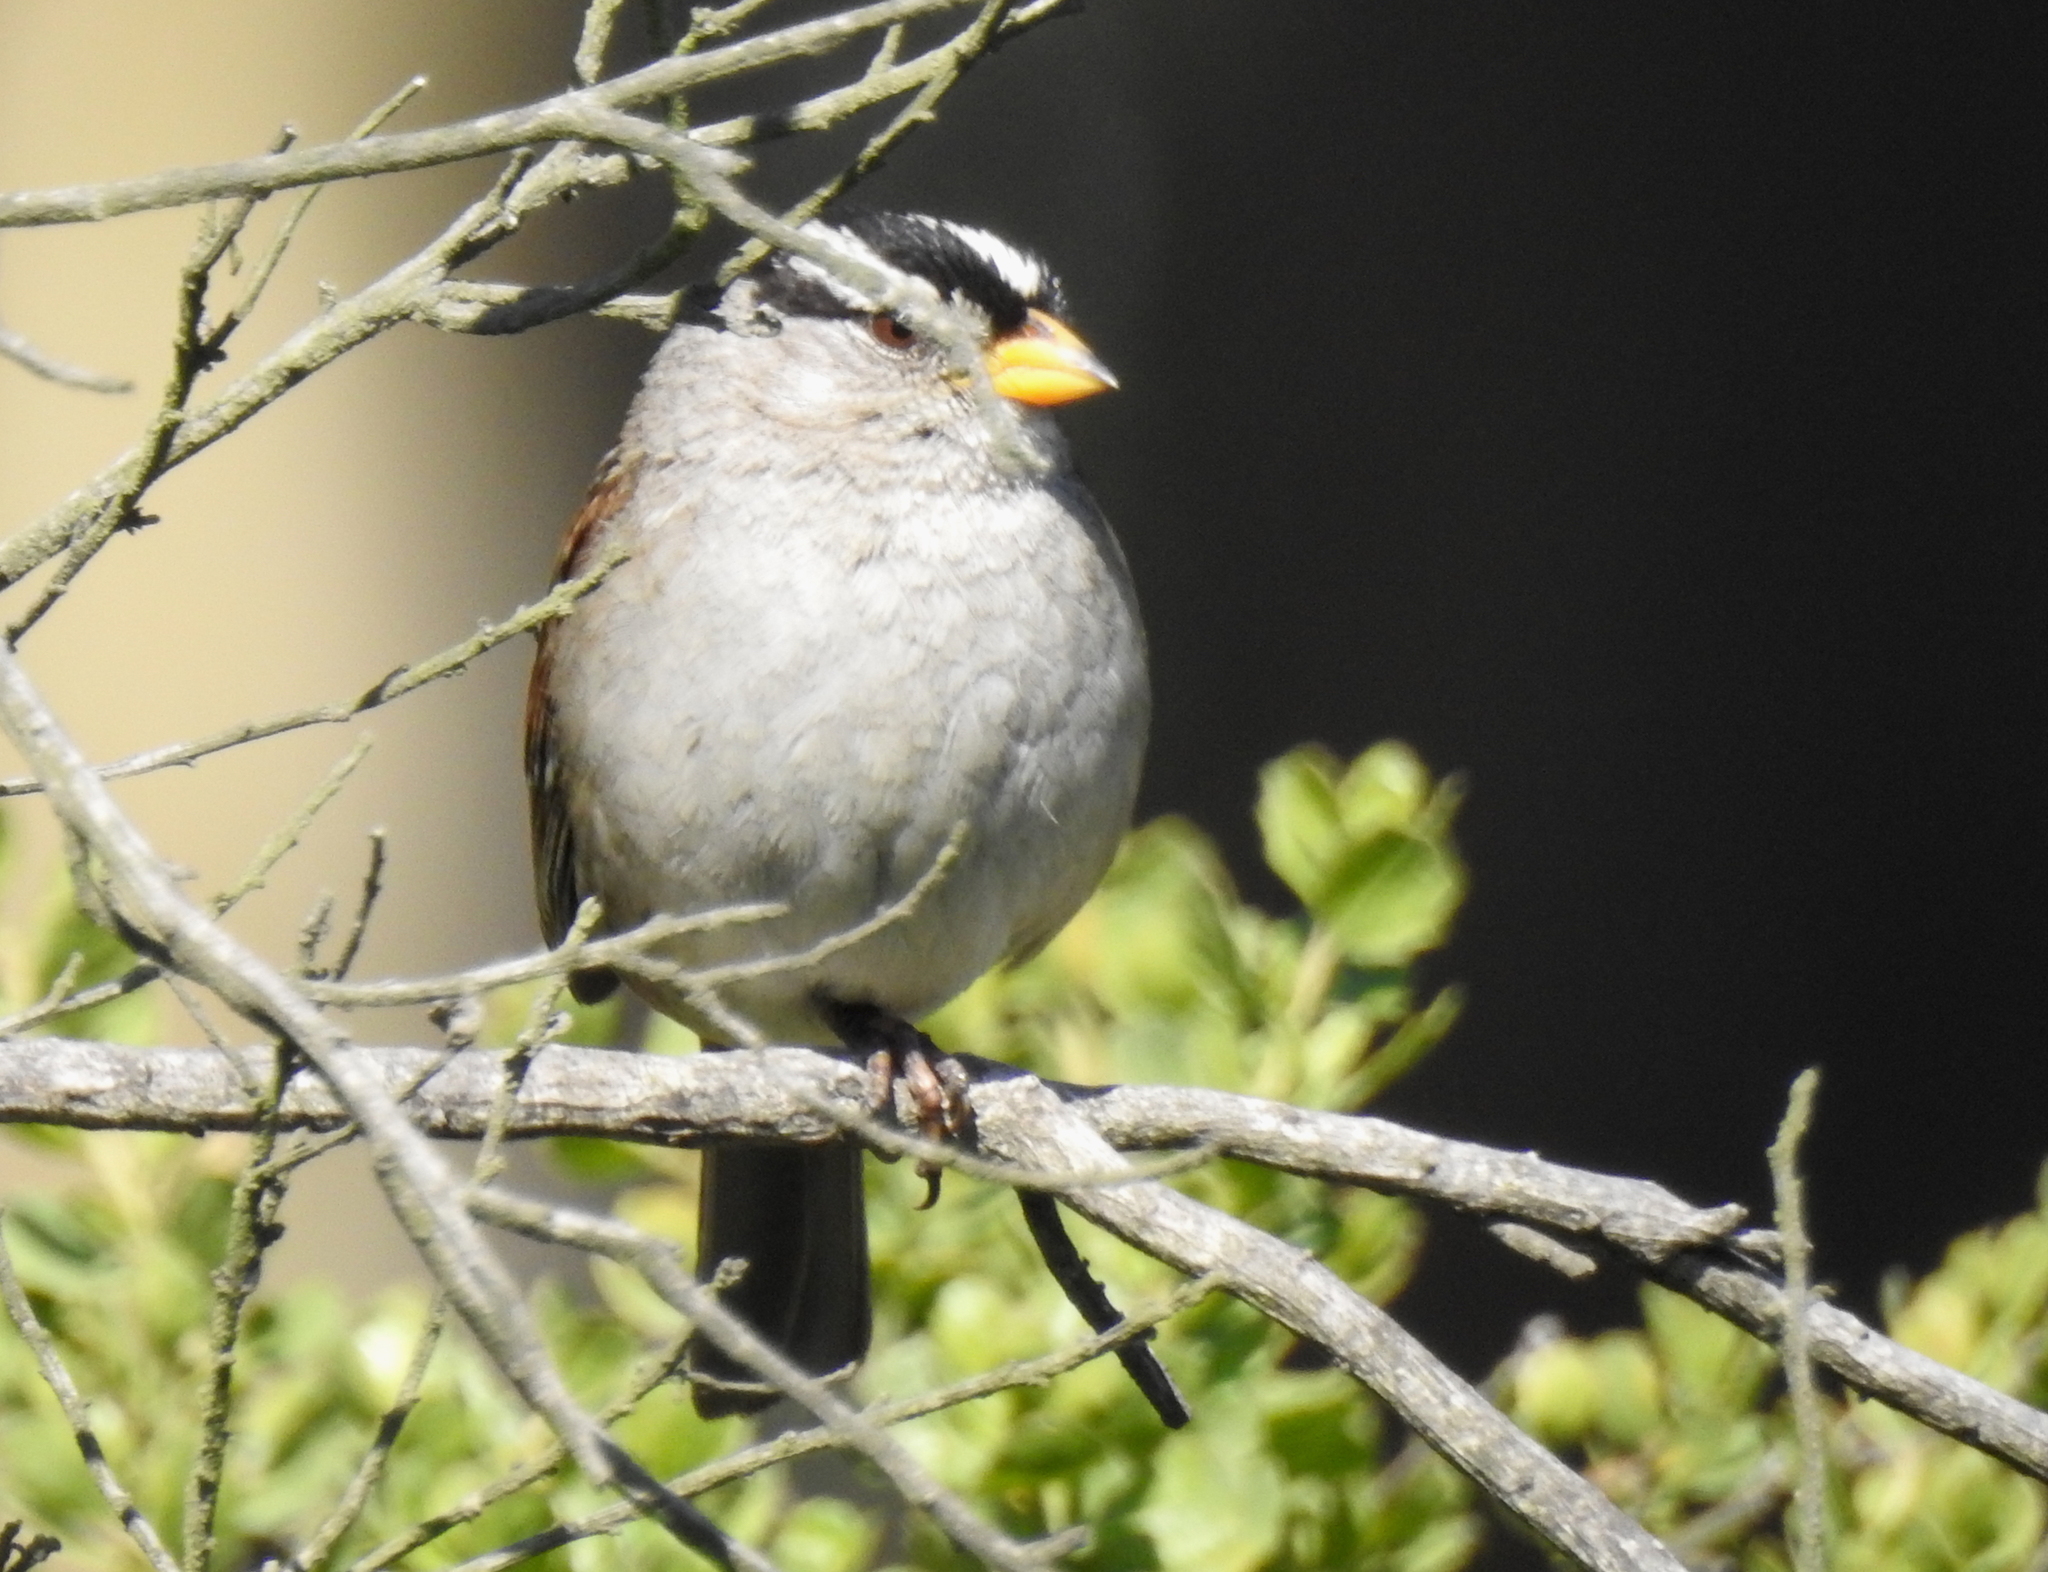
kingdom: Animalia
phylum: Chordata
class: Aves
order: Passeriformes
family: Passerellidae
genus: Zonotrichia
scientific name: Zonotrichia leucophrys
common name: White-crowned sparrow
